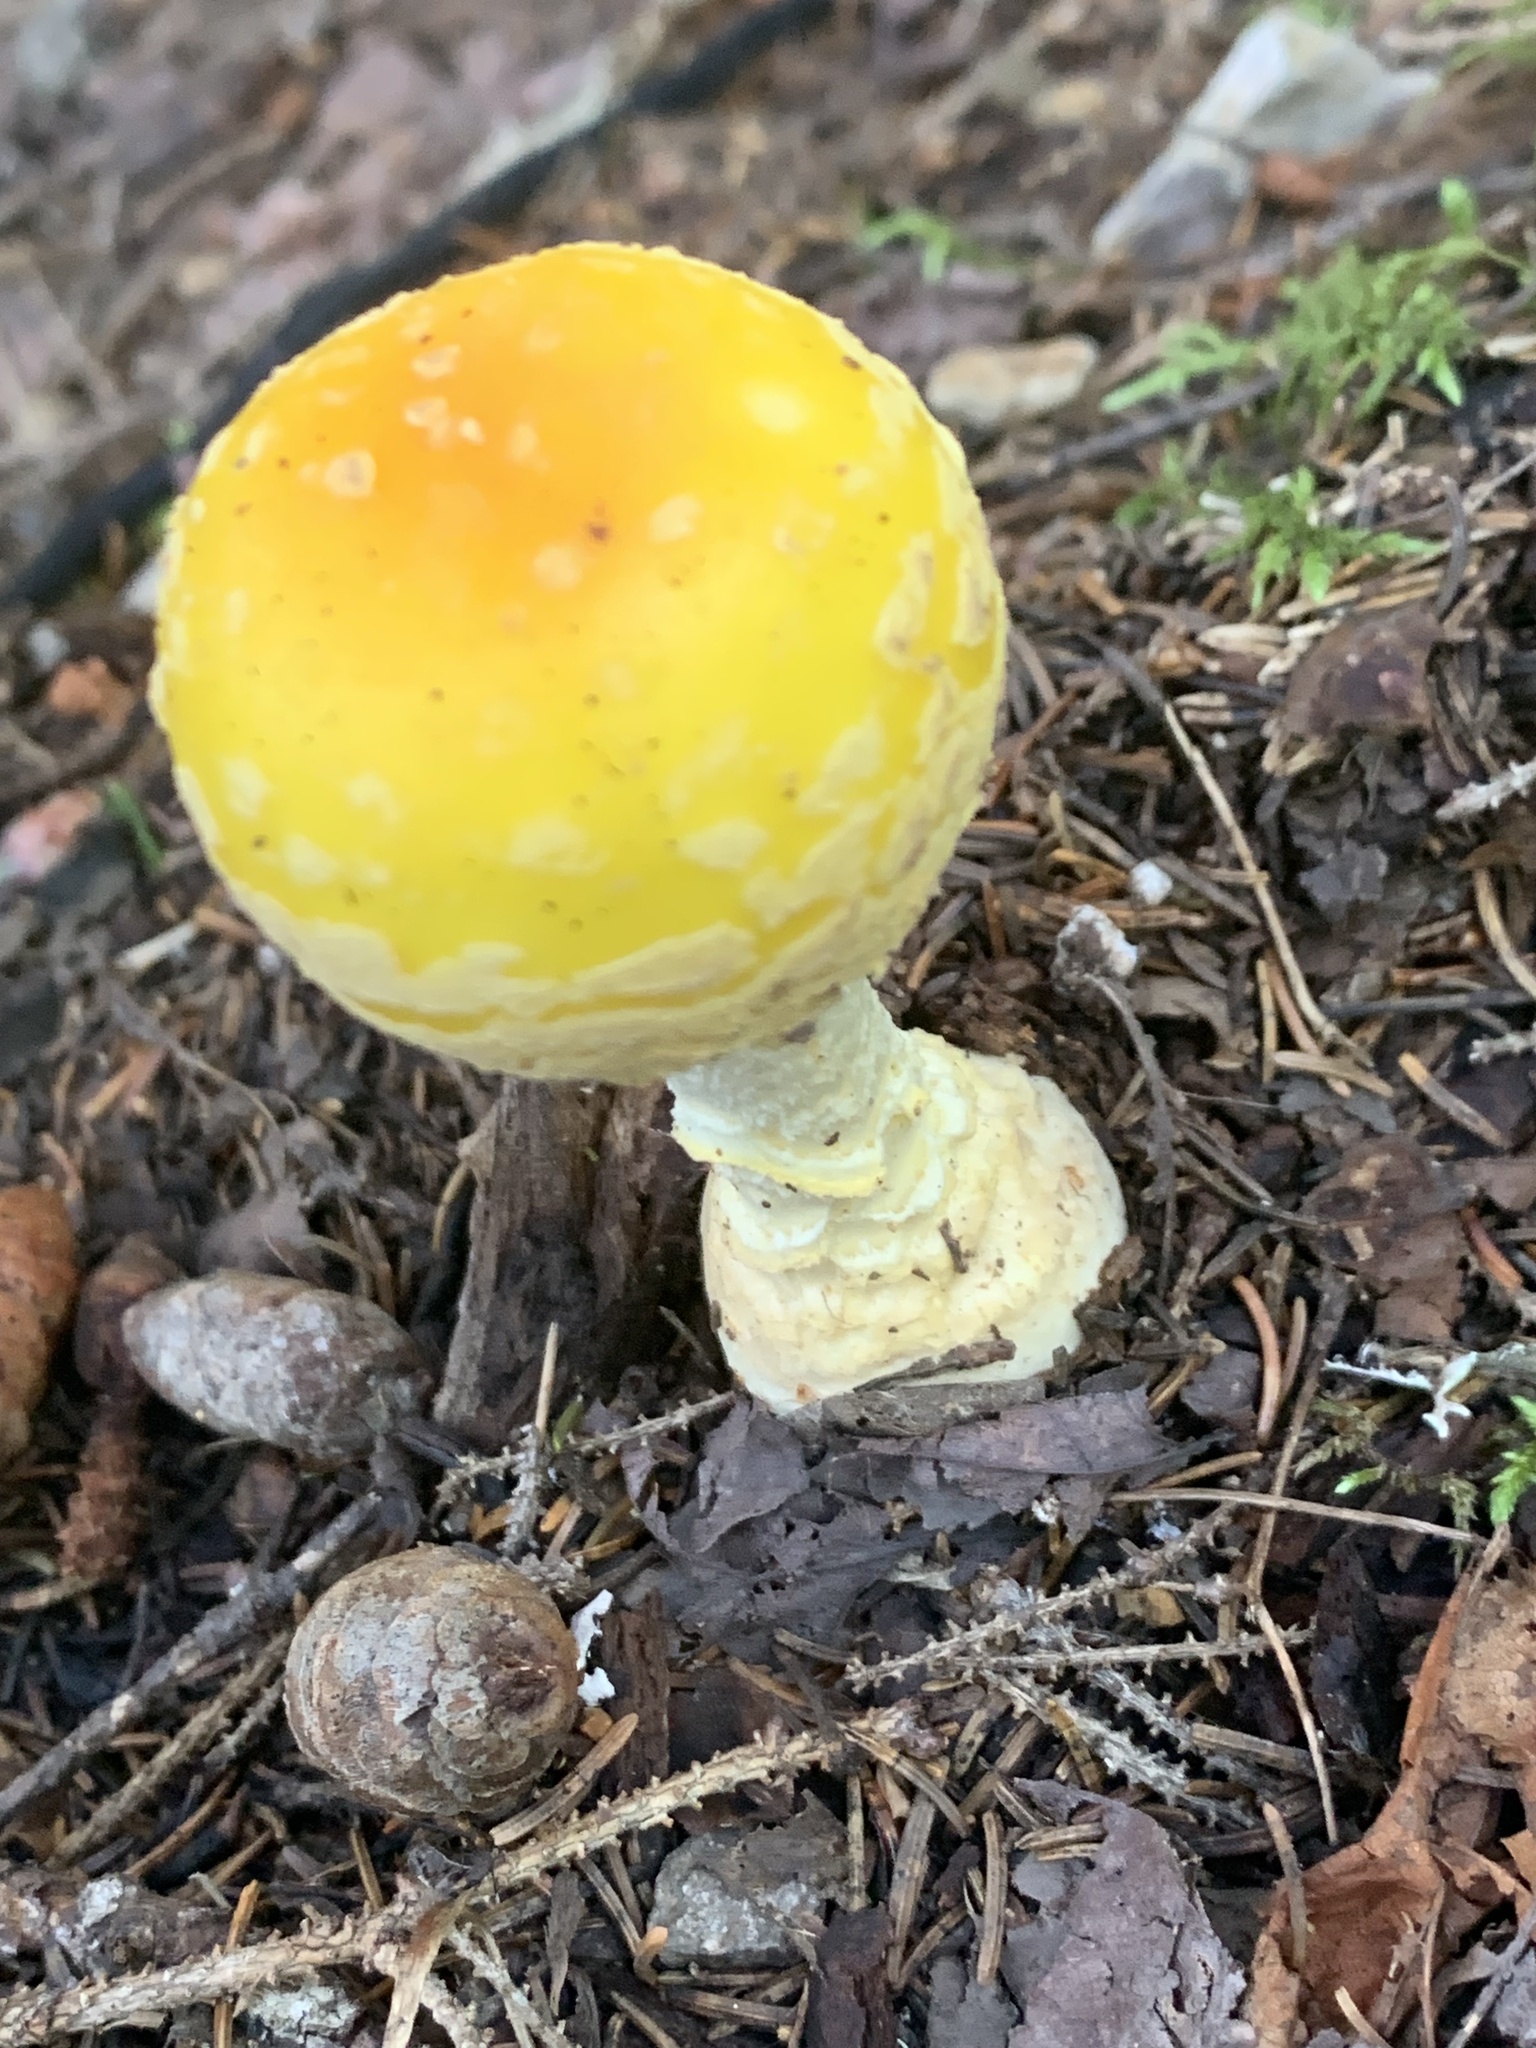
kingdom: Fungi
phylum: Basidiomycota
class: Agaricomycetes
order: Agaricales
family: Amanitaceae
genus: Amanita
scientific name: Amanita muscaria
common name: Fly agaric
